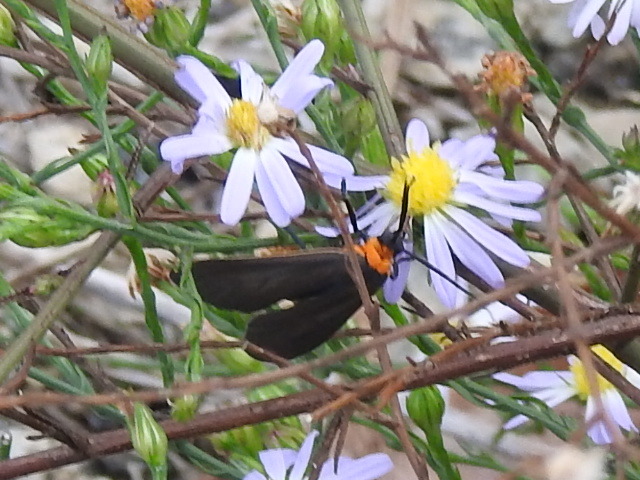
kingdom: Animalia
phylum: Arthropoda
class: Insecta
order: Lepidoptera
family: Erebidae
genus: Cisseps
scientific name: Cisseps fulvicollis
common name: Yellow-collared scape moth
